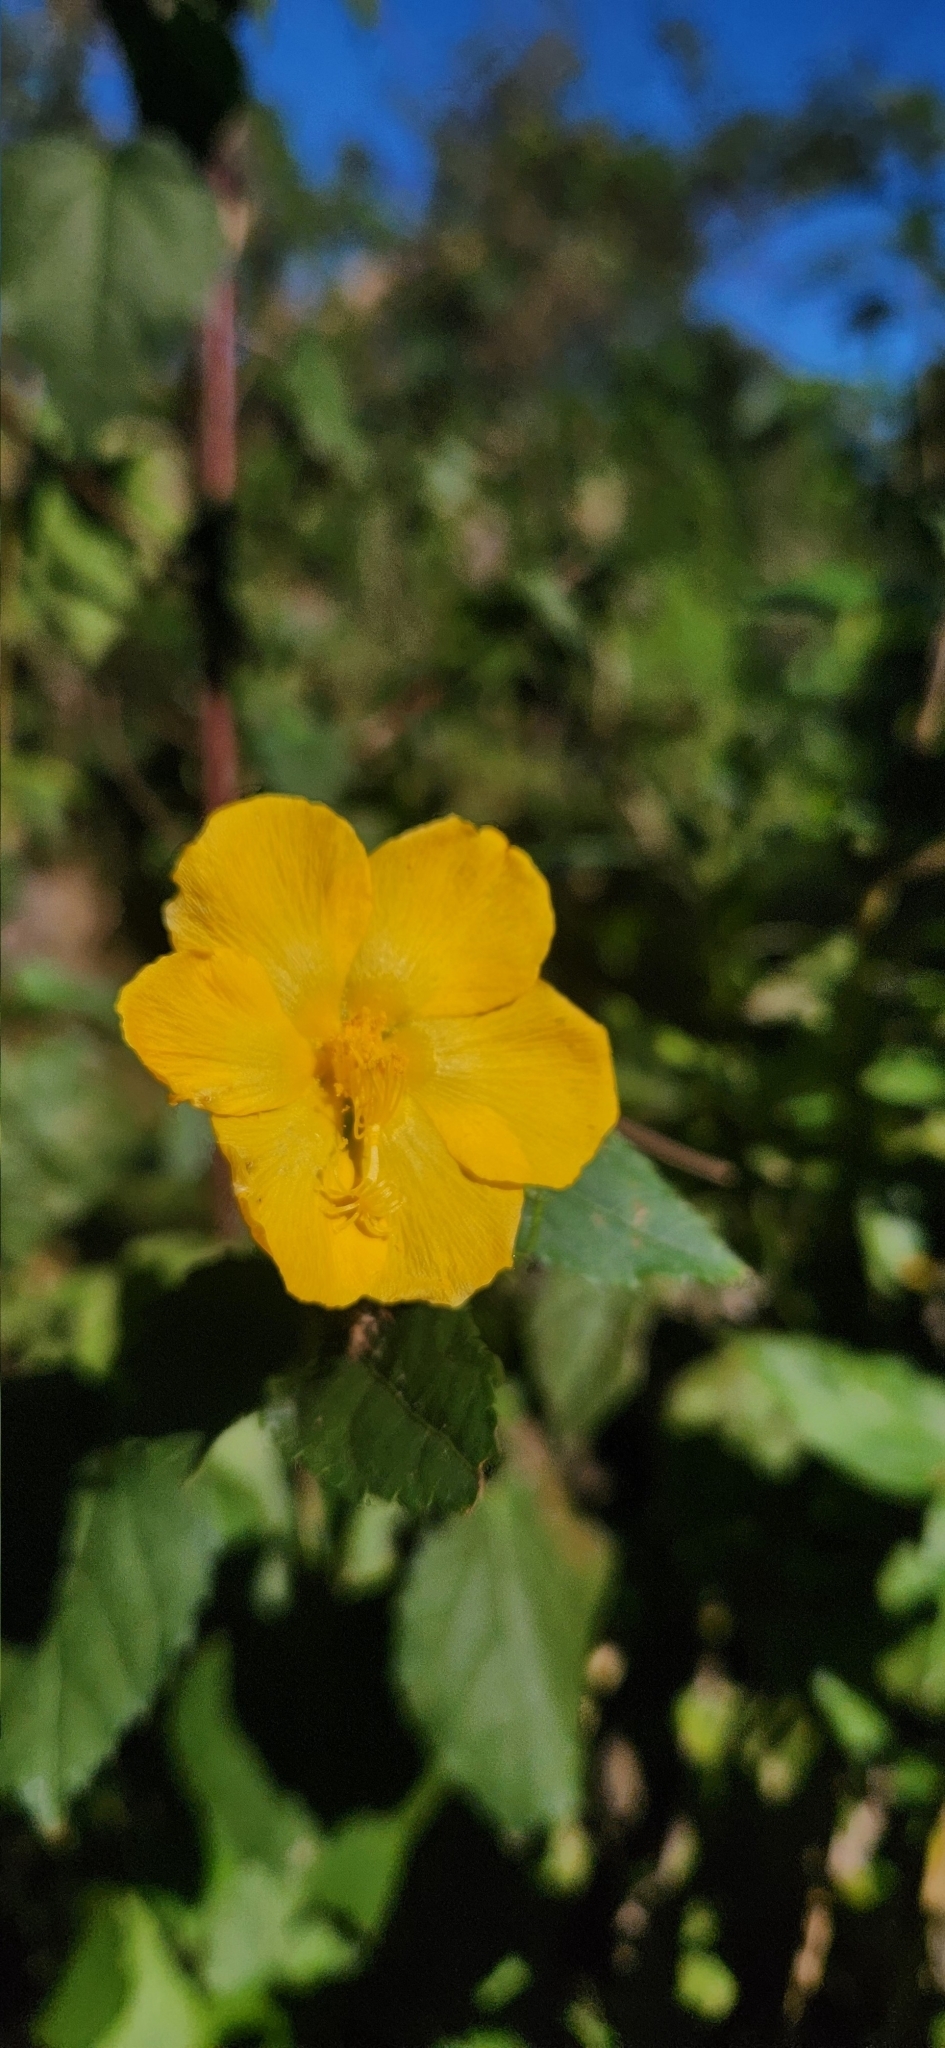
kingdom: Plantae
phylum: Tracheophyta
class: Magnoliopsida
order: Malvales
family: Malvaceae
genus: Pavonia
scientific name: Pavonia vitifolia
